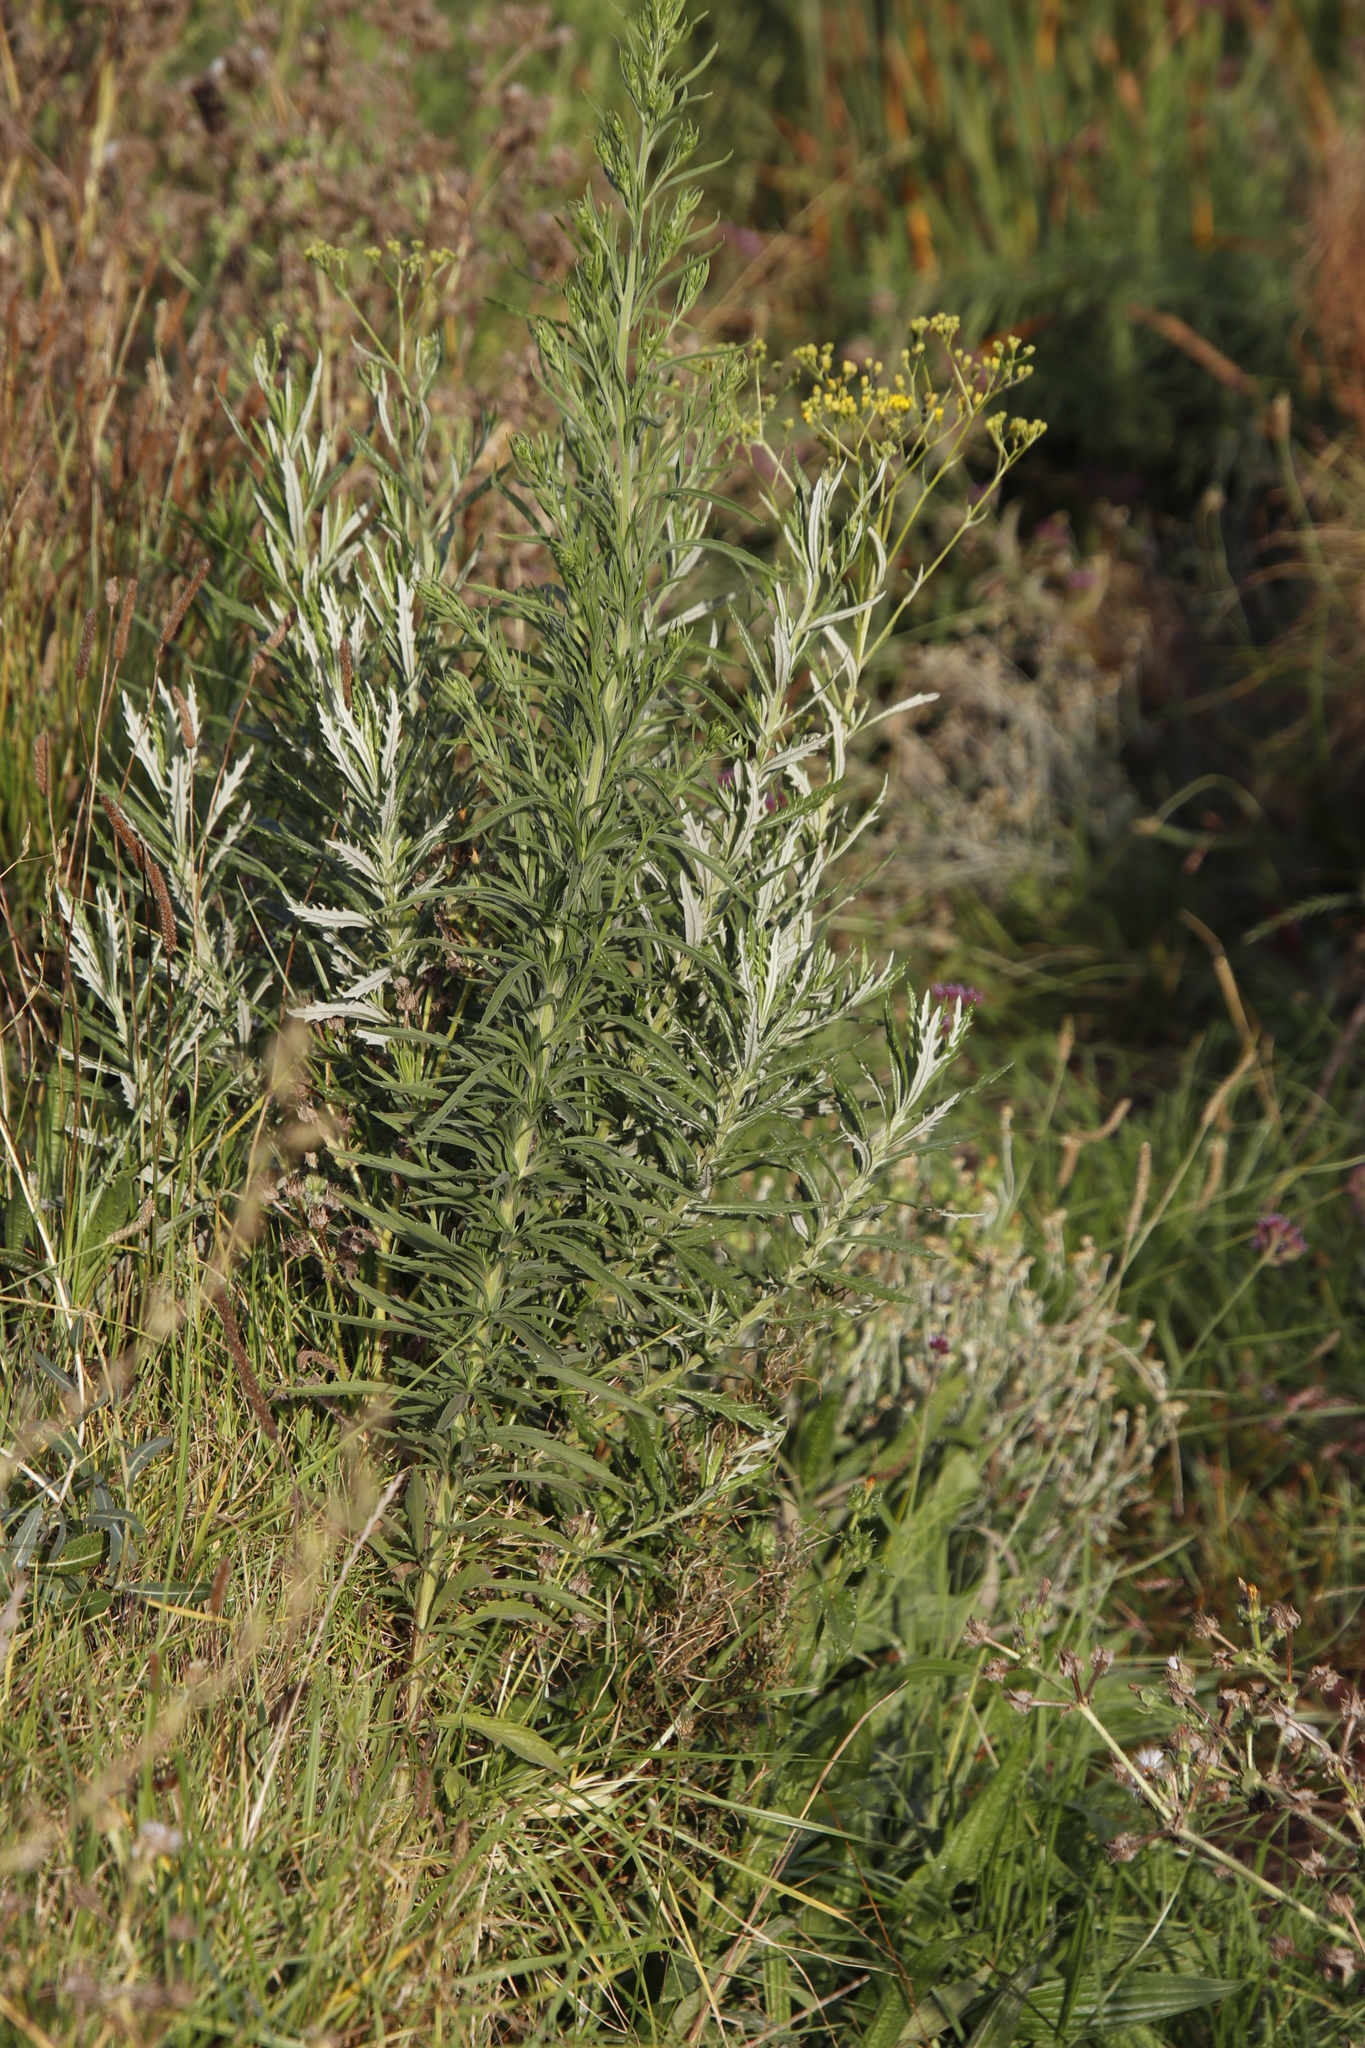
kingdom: Plantae
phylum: Tracheophyta
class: Magnoliopsida
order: Asterales
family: Asteraceae
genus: Senecio
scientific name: Senecio pterophorus
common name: Shoddy ragwort
